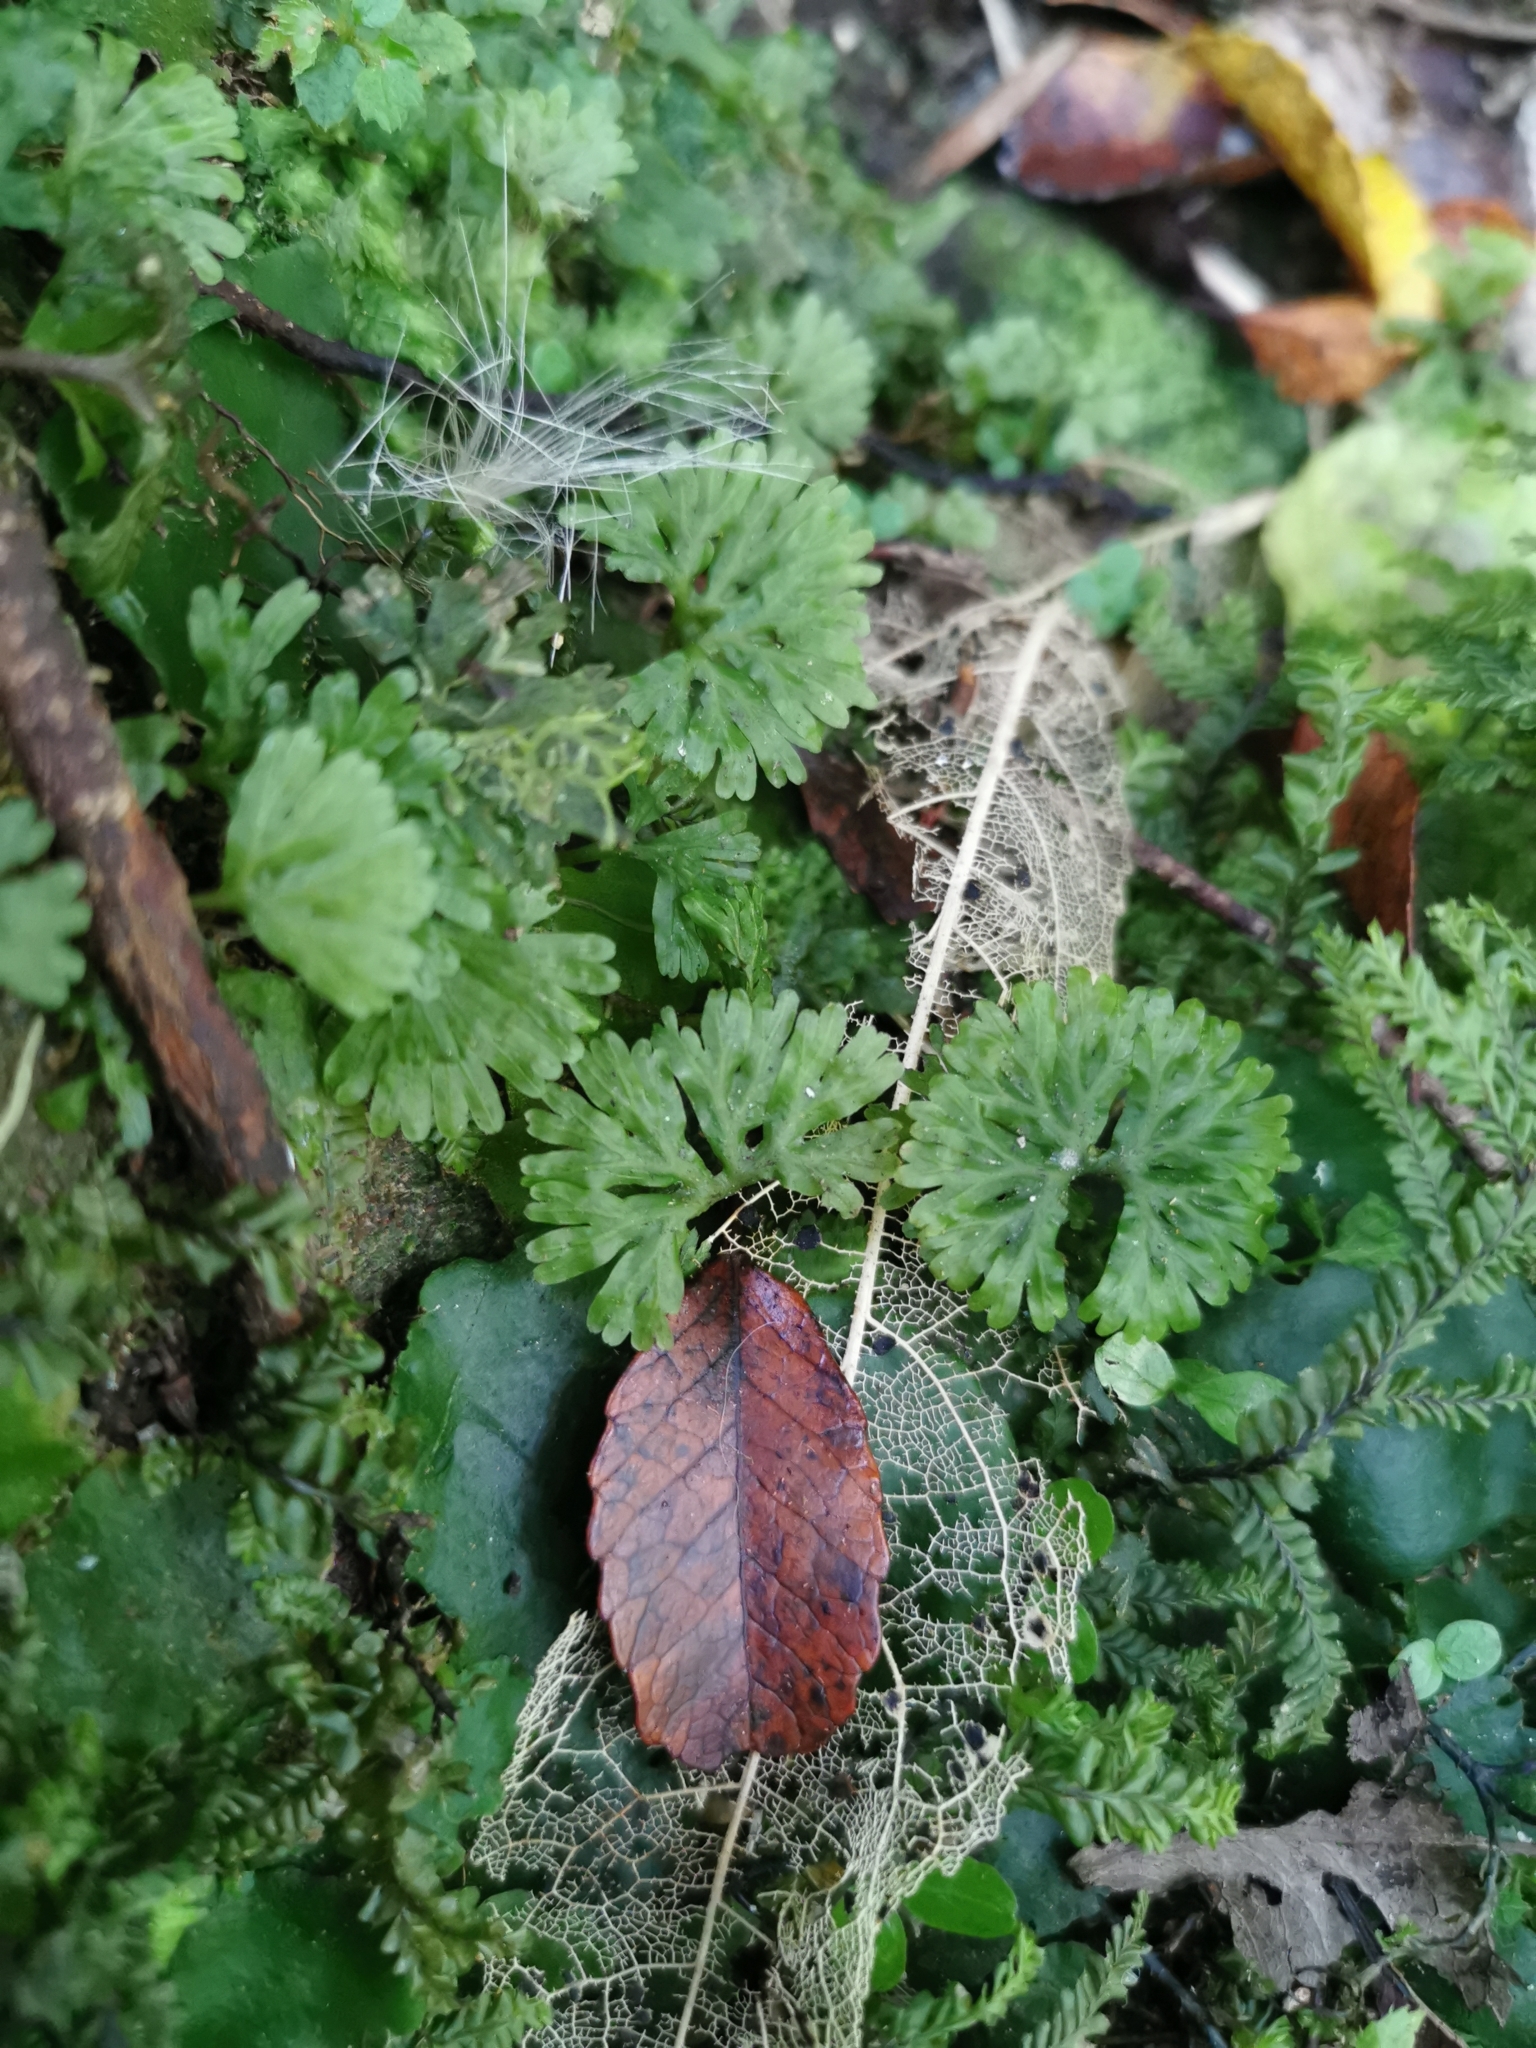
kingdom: Plantae
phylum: Marchantiophyta
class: Jungermanniopsida
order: Pallaviciniales
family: Hymenophytaceae
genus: Hymenophyton
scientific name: Hymenophyton flabellatum
